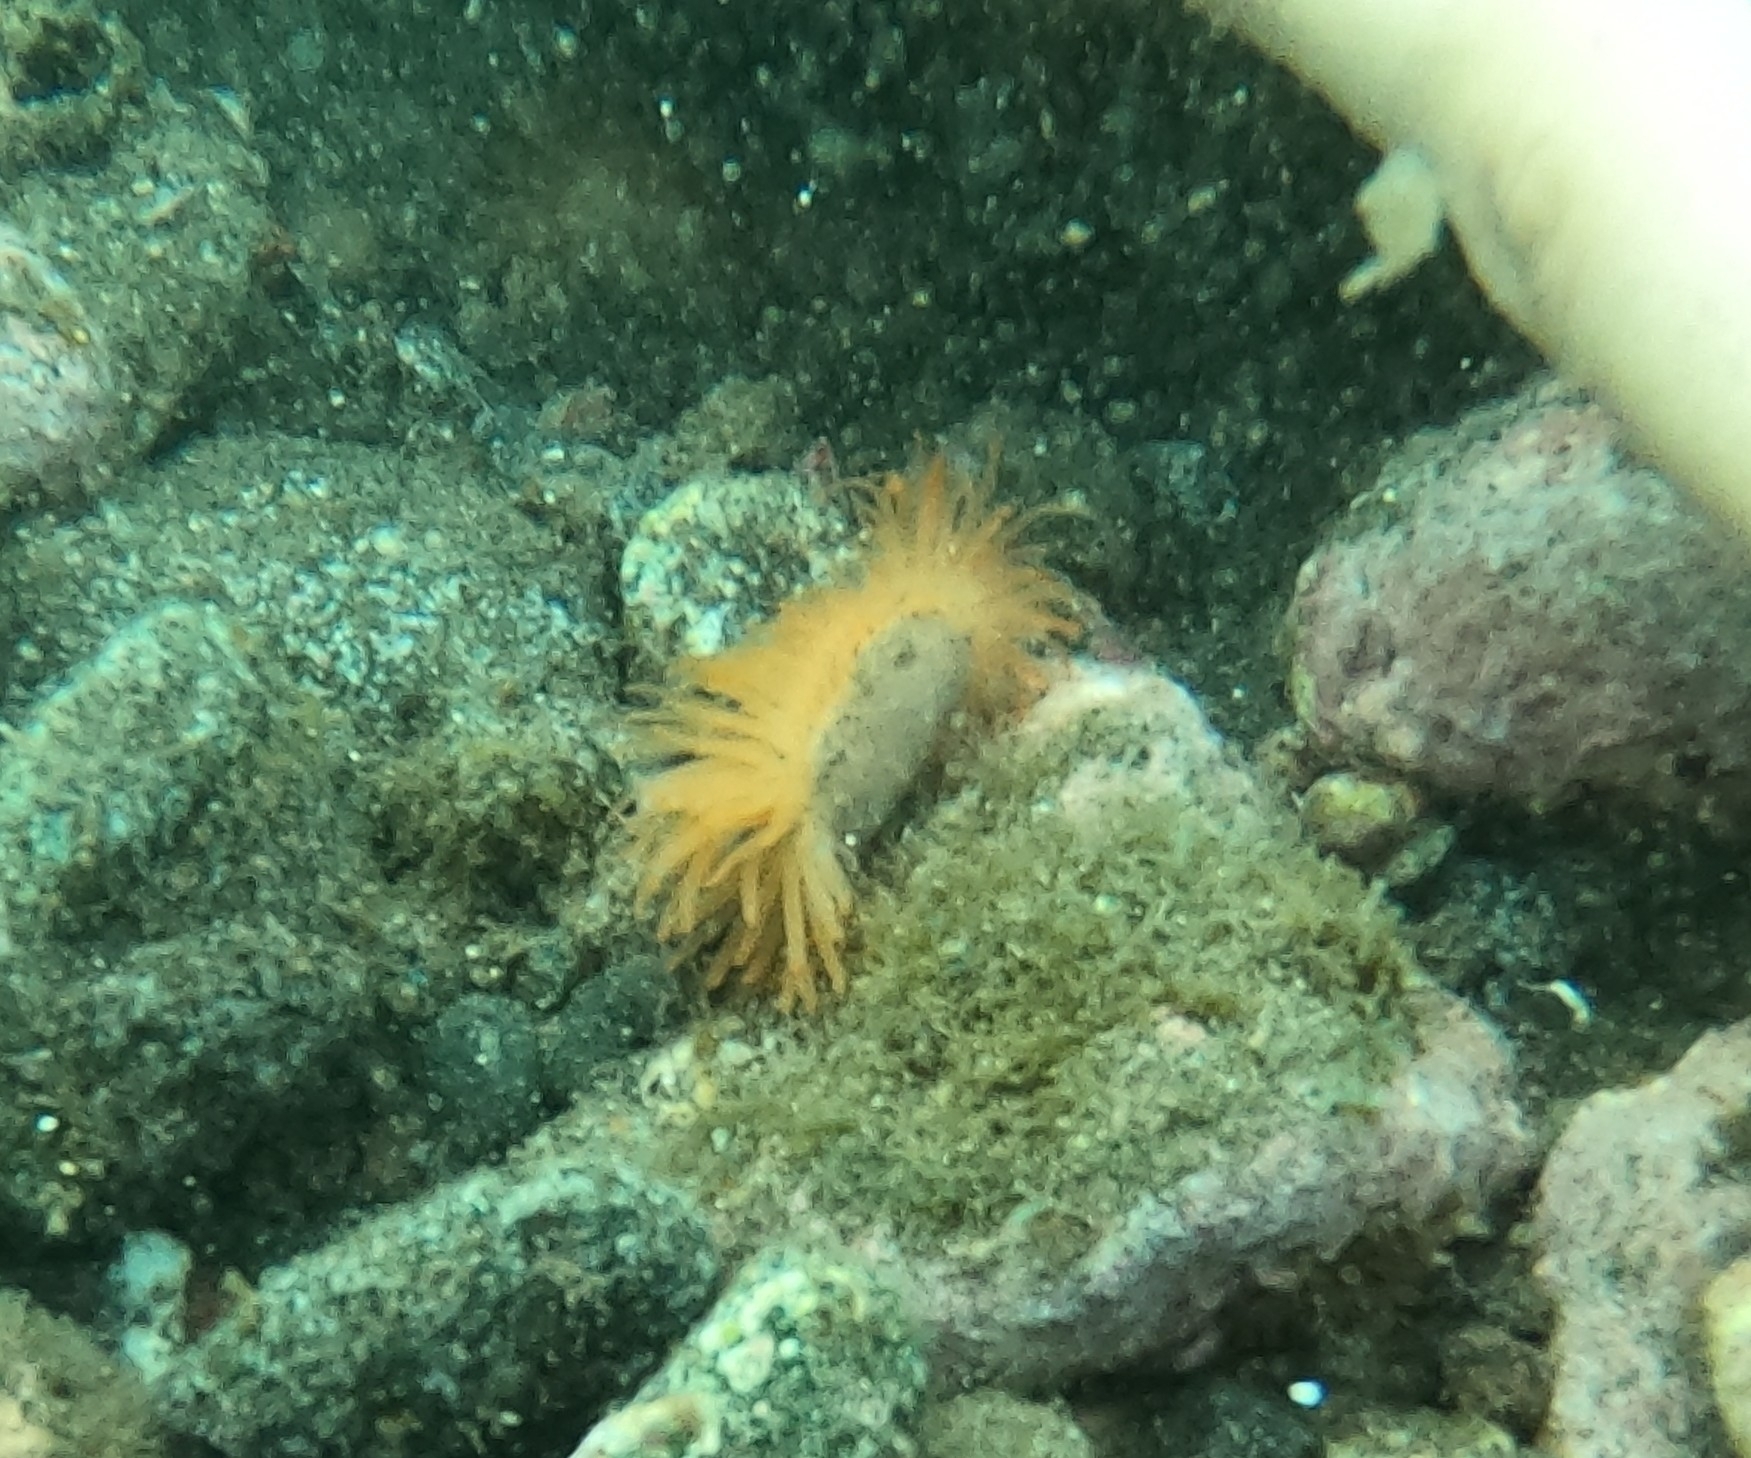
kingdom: Animalia
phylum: Mollusca
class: Bivalvia
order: Limida
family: Limidae
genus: Limaria
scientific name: Limaria hians
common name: Gaping file shale
